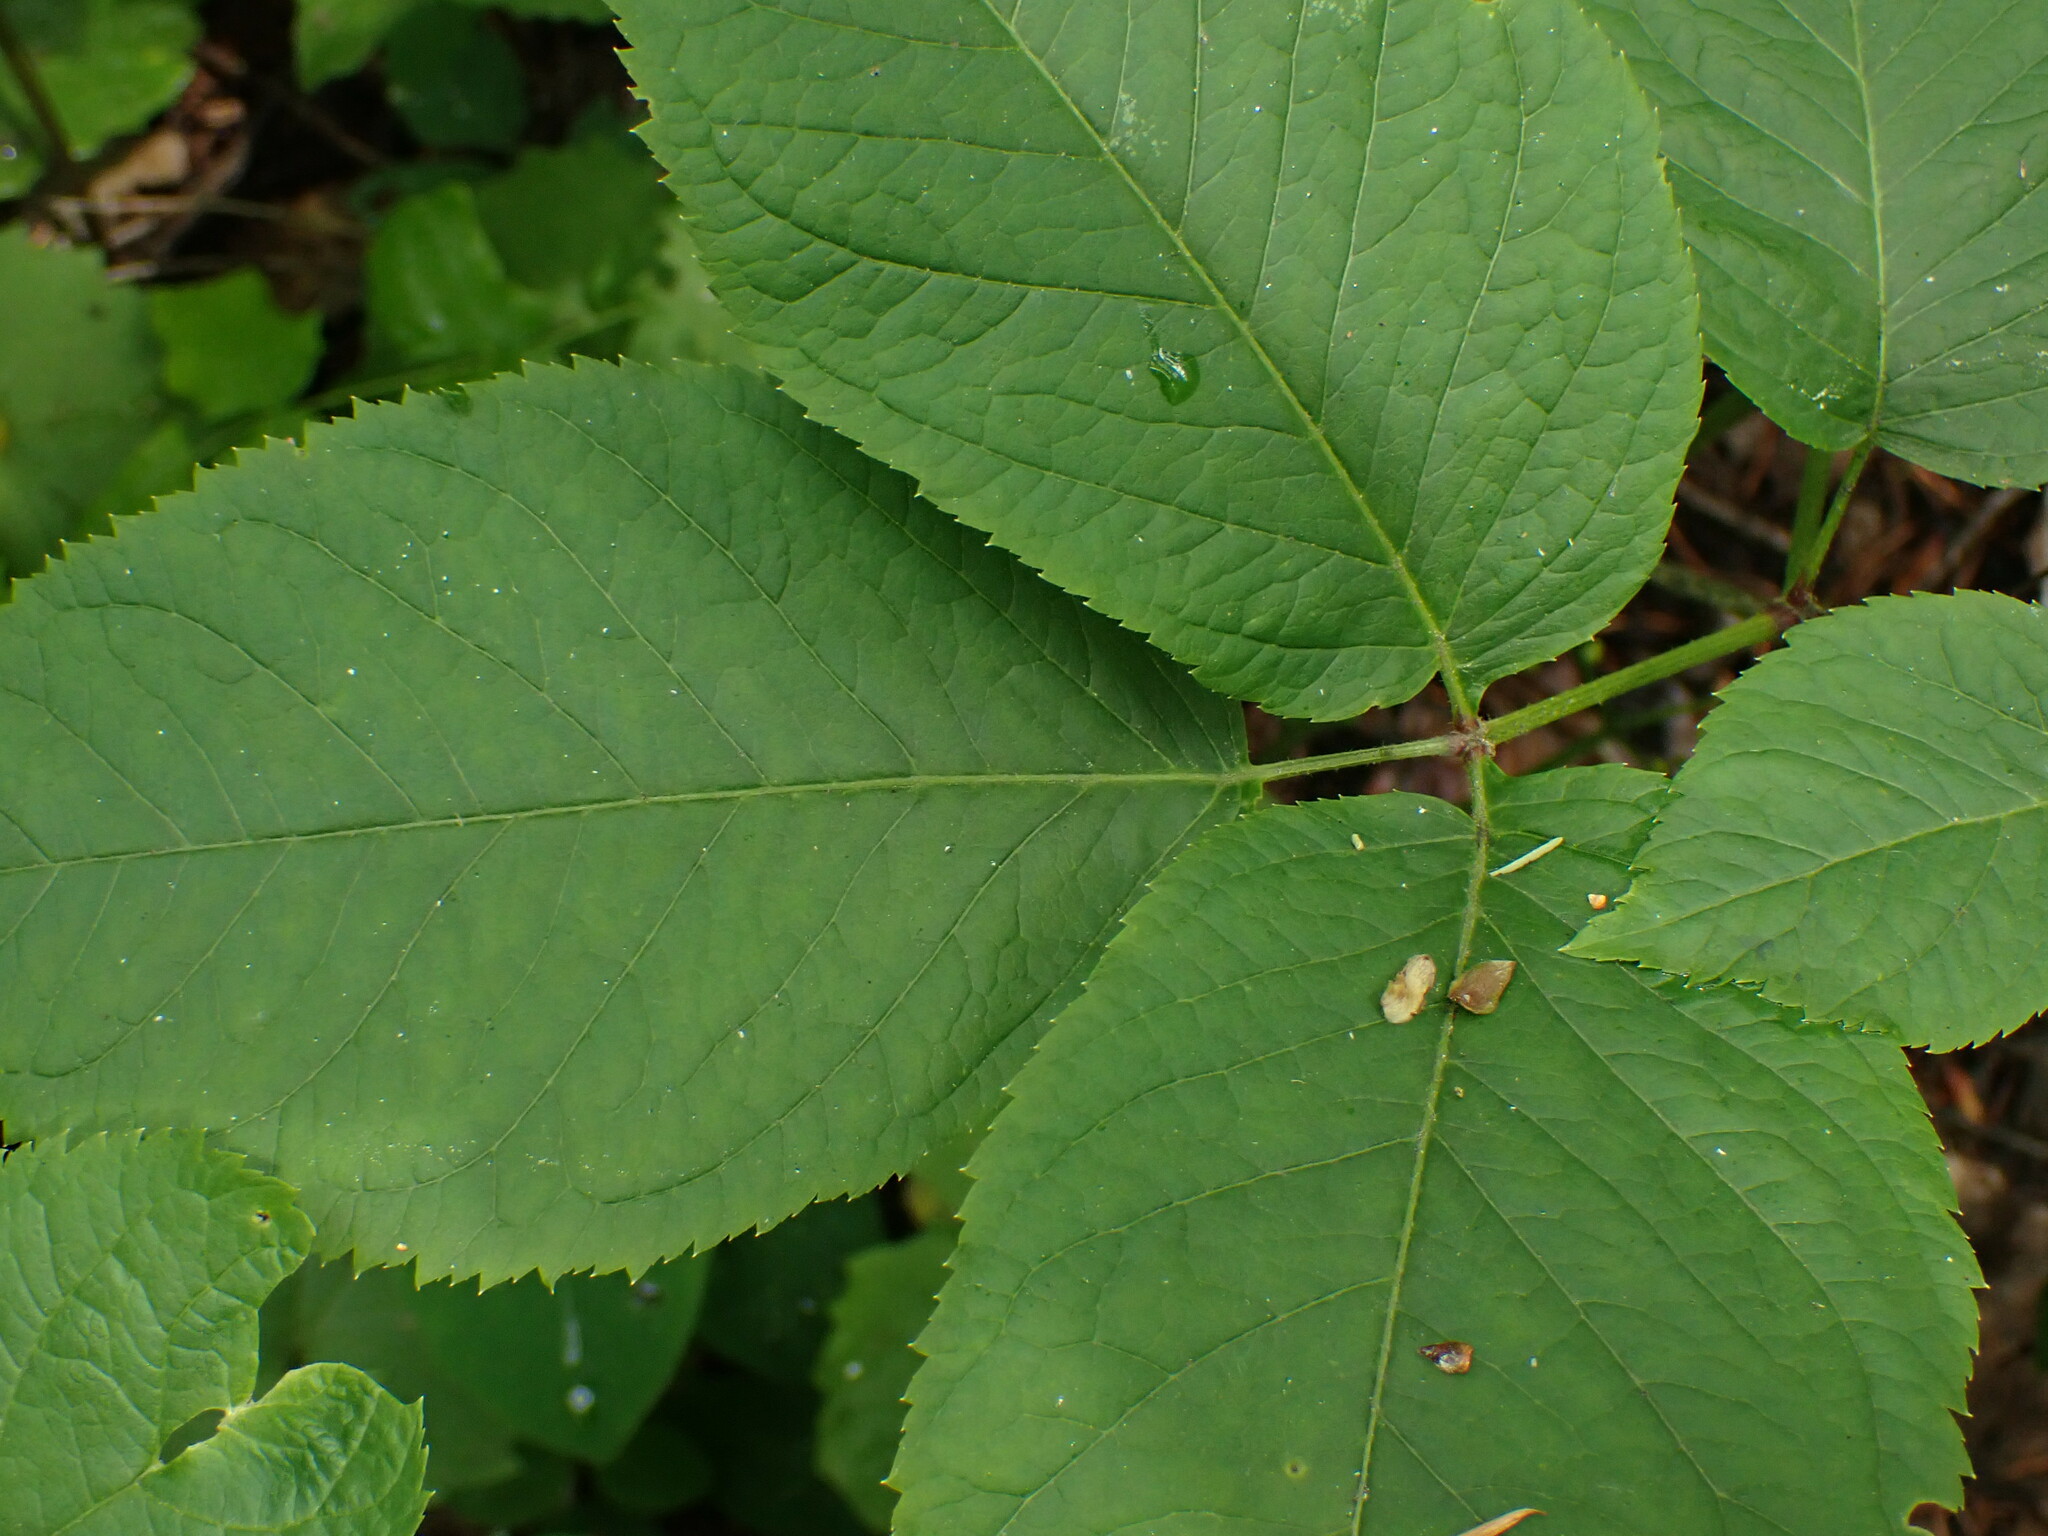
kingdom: Plantae
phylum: Tracheophyta
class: Magnoliopsida
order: Apiales
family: Araliaceae
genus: Aralia
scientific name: Aralia nudicaulis
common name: Wild sarsaparilla
